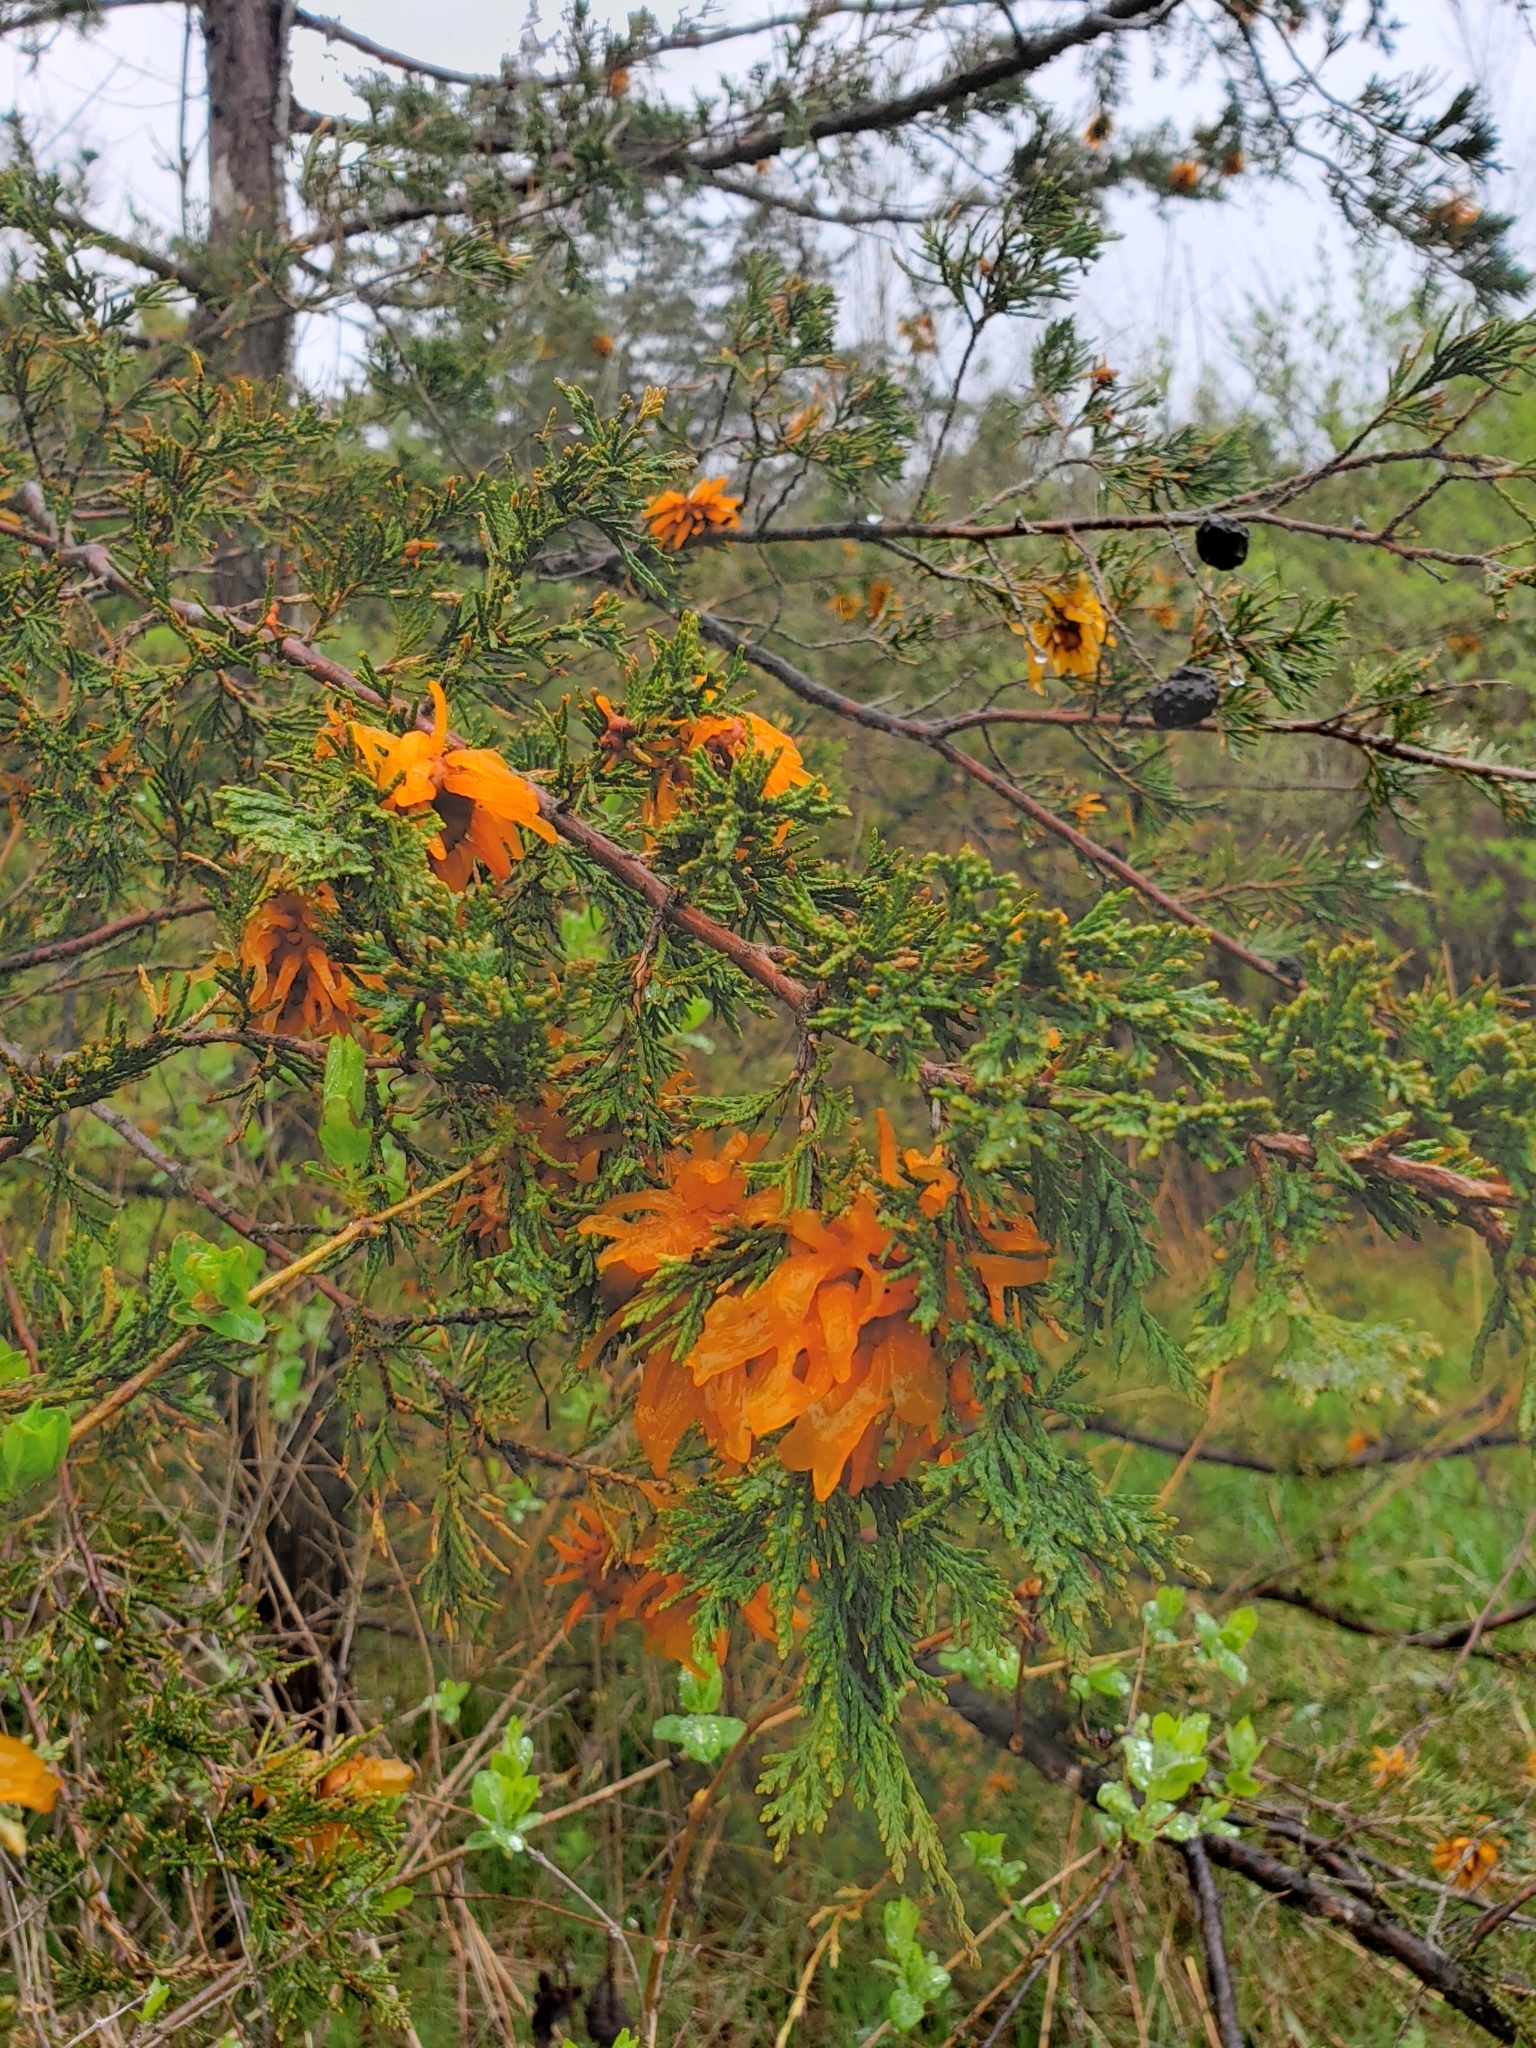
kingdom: Fungi
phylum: Basidiomycota
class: Pucciniomycetes
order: Pucciniales
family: Gymnosporangiaceae
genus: Gymnosporangium
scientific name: Gymnosporangium juniperi-virginianae
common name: Juniper-apple rust
